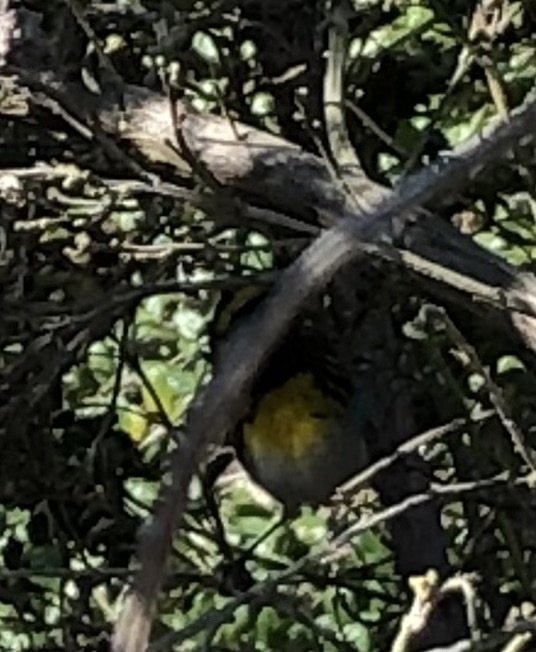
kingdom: Animalia
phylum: Chordata
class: Aves
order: Passeriformes
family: Parulidae
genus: Setophaga
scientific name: Setophaga townsendi
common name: Townsend's warbler
